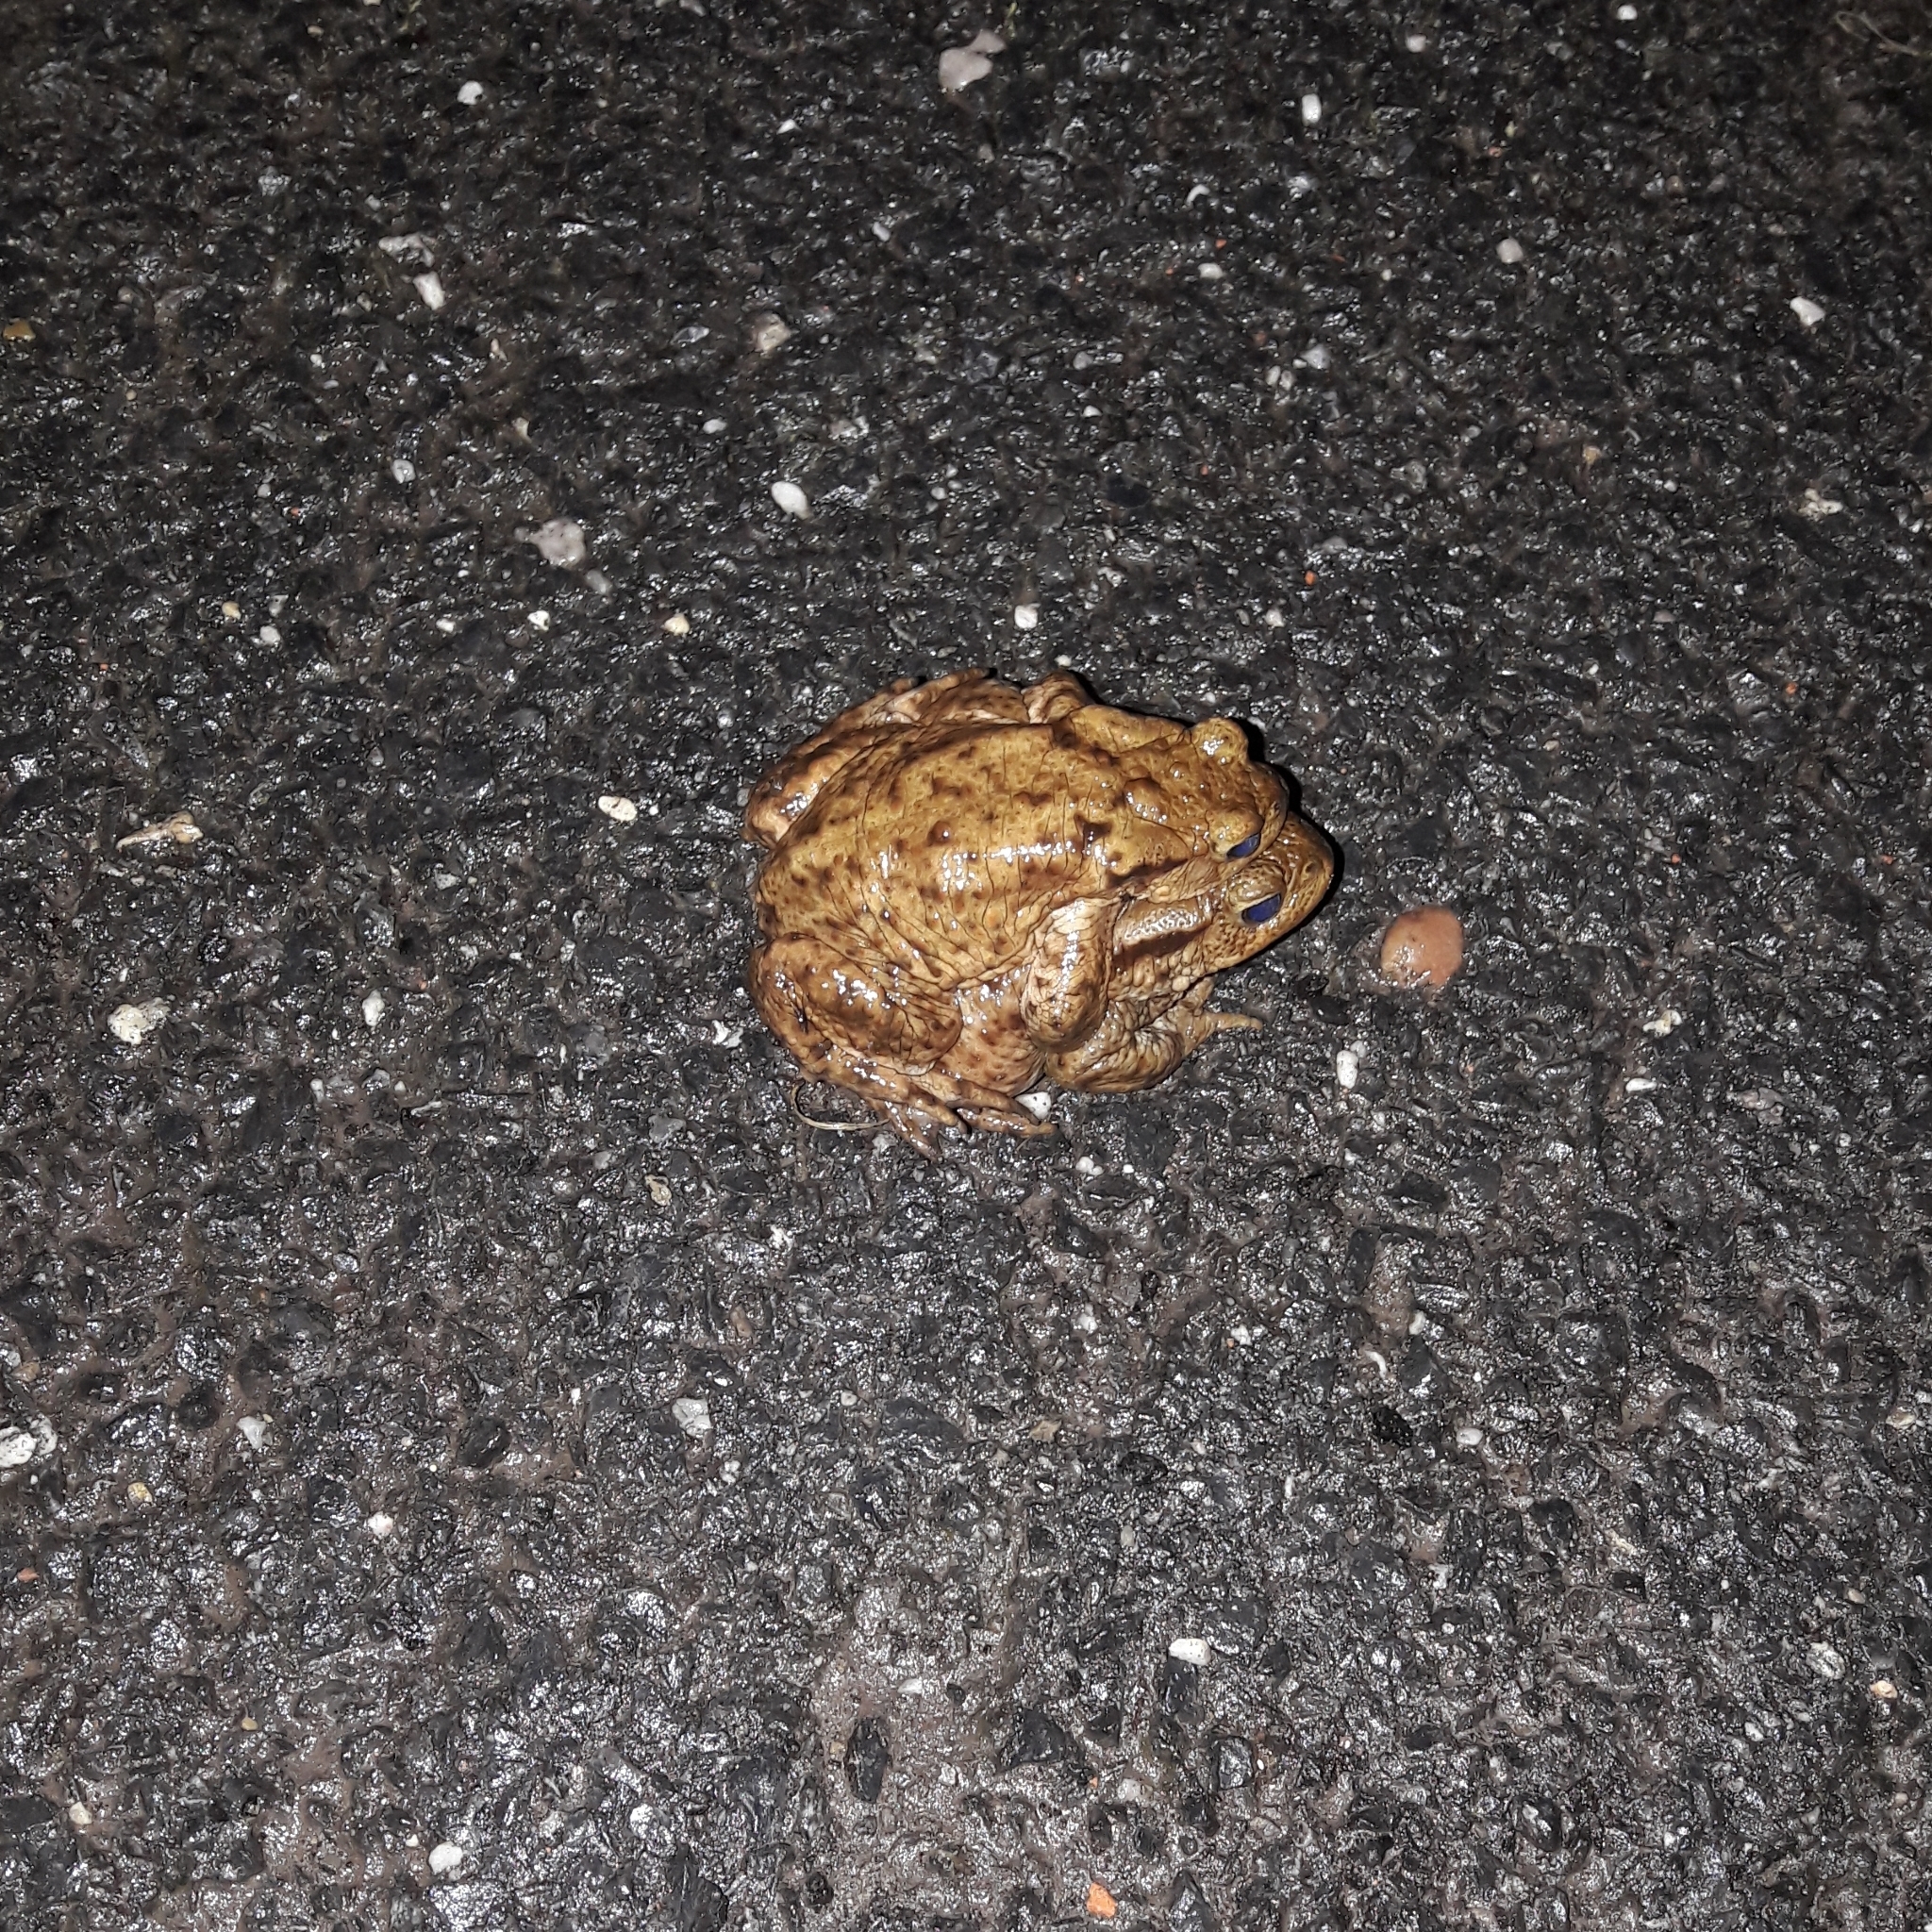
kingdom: Animalia
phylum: Chordata
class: Amphibia
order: Anura
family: Bufonidae
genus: Bufo
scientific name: Bufo bufo
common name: Common toad
